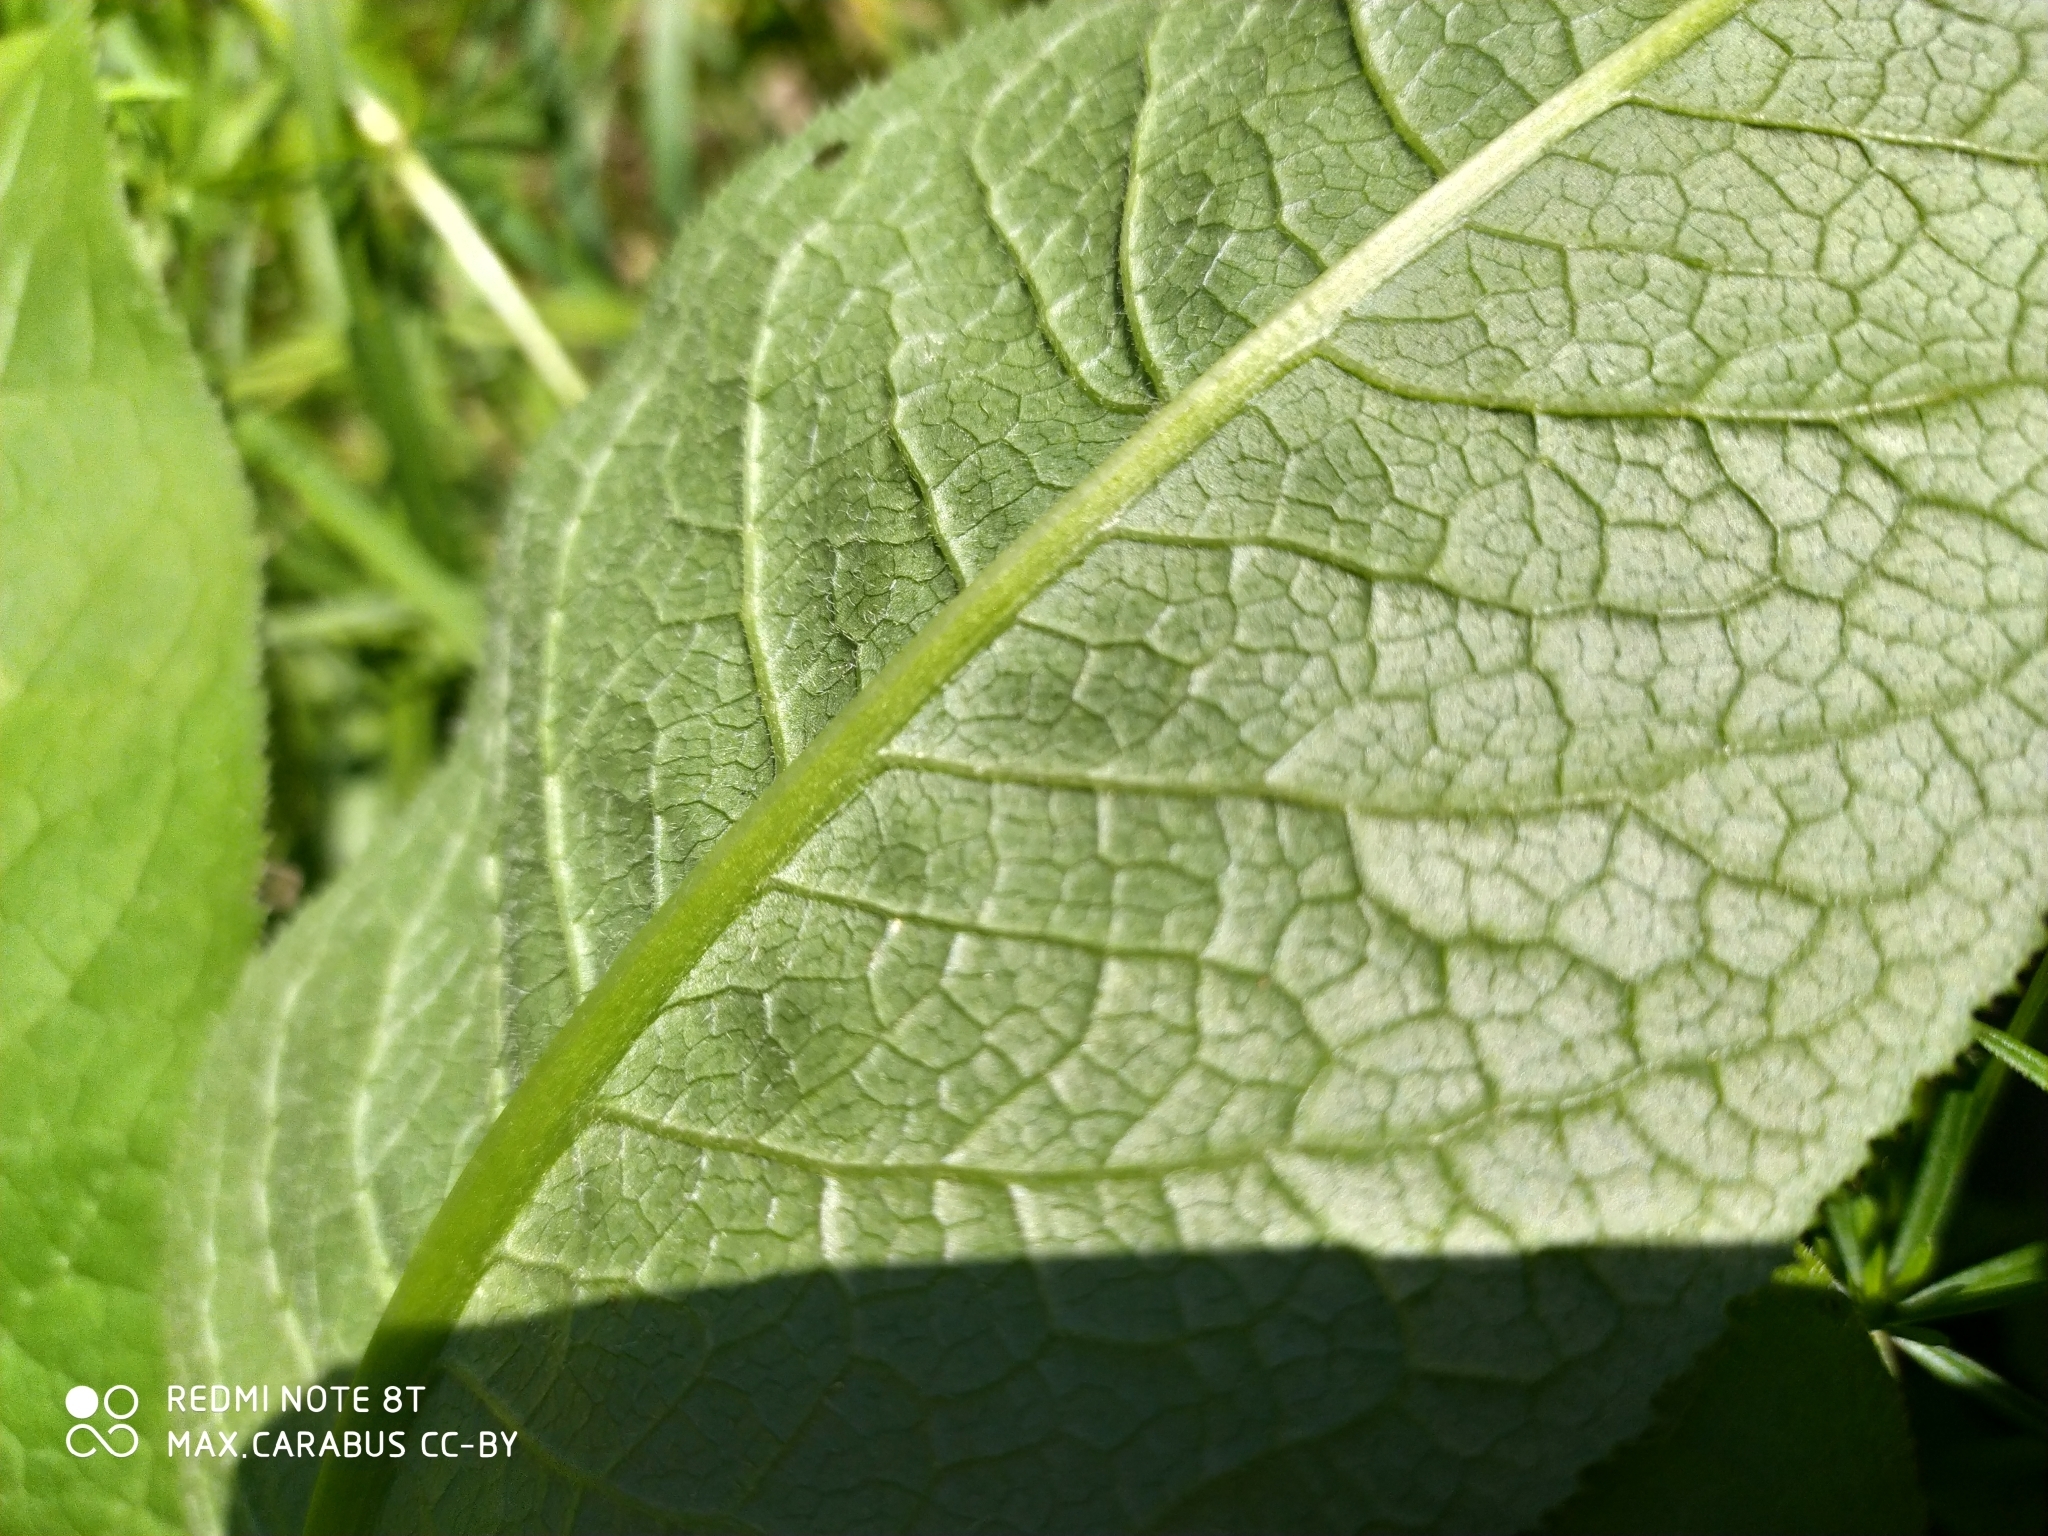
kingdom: Plantae
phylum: Tracheophyta
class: Magnoliopsida
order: Asterales
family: Asteraceae
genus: Serratula
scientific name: Serratula tinctoria
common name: Saw-wort
